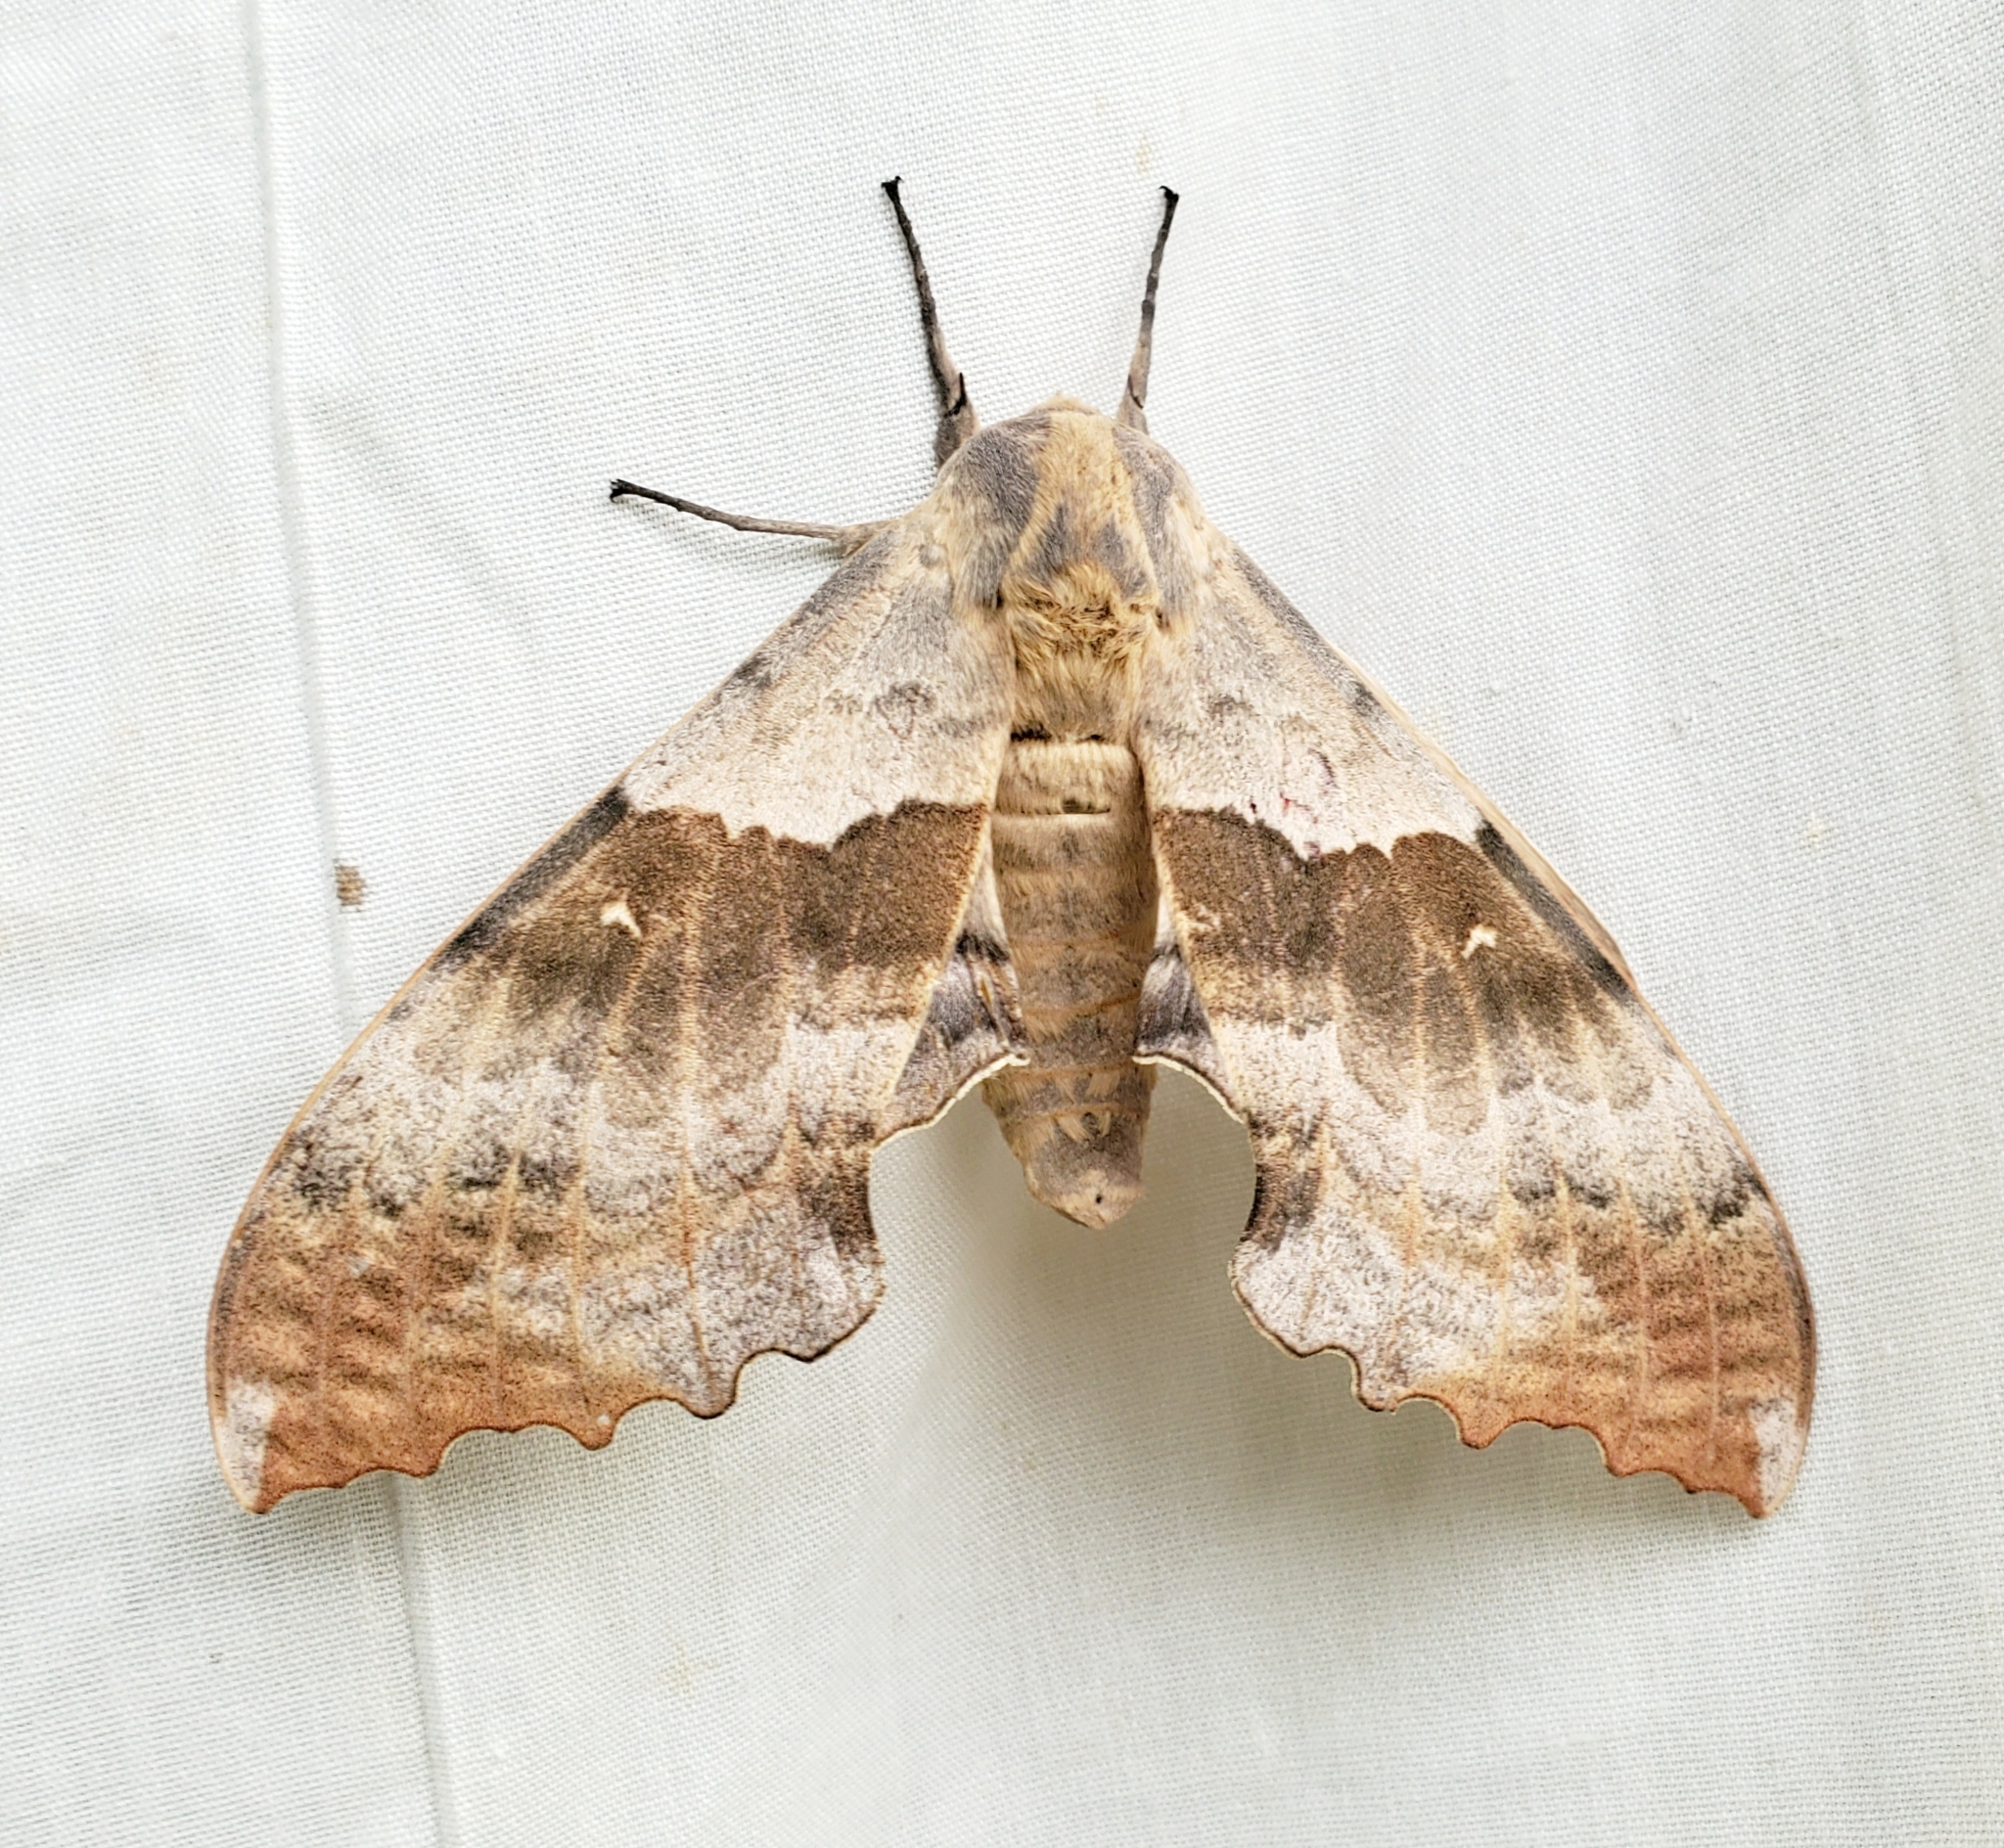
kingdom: Animalia
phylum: Arthropoda
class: Insecta
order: Lepidoptera
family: Sphingidae
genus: Pachysphinx
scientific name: Pachysphinx occidentalis
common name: Western poplar sphinx
